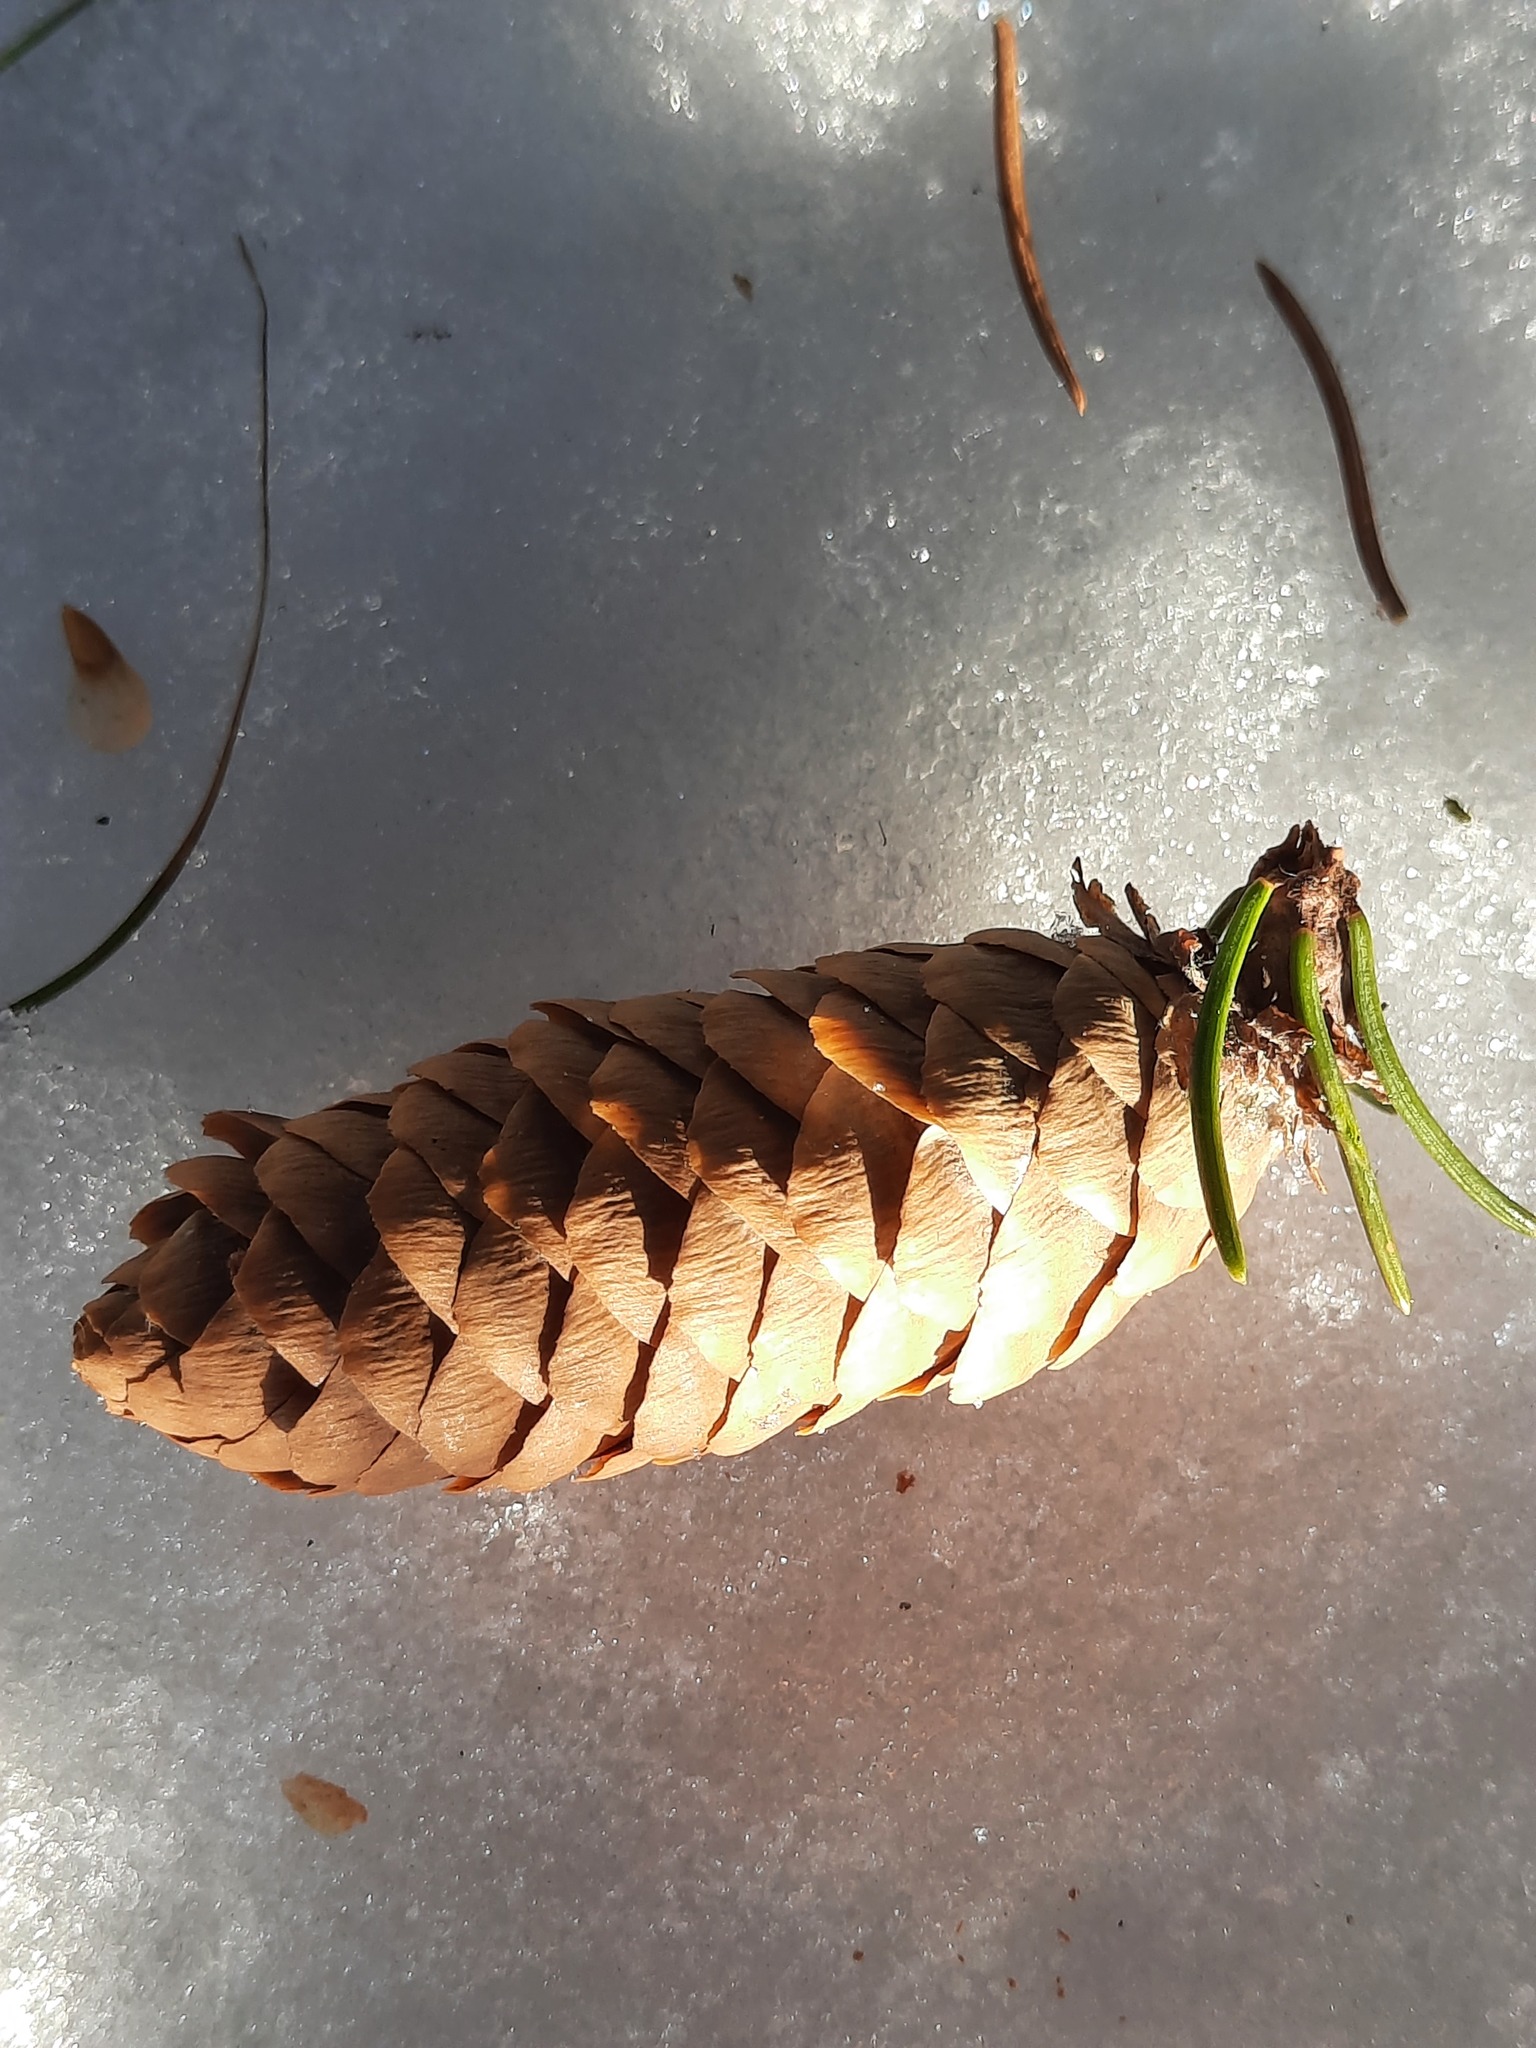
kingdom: Plantae
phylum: Tracheophyta
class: Pinopsida
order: Pinales
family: Pinaceae
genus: Picea
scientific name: Picea fennica
